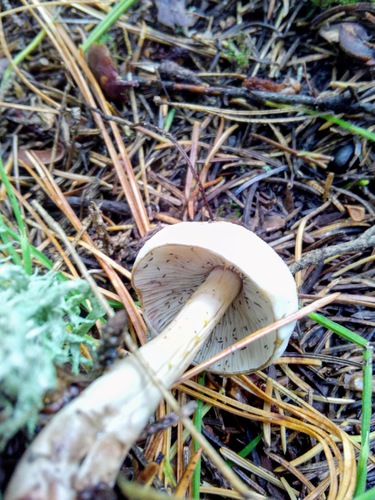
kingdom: Fungi
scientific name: Fungi
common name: Fungi
